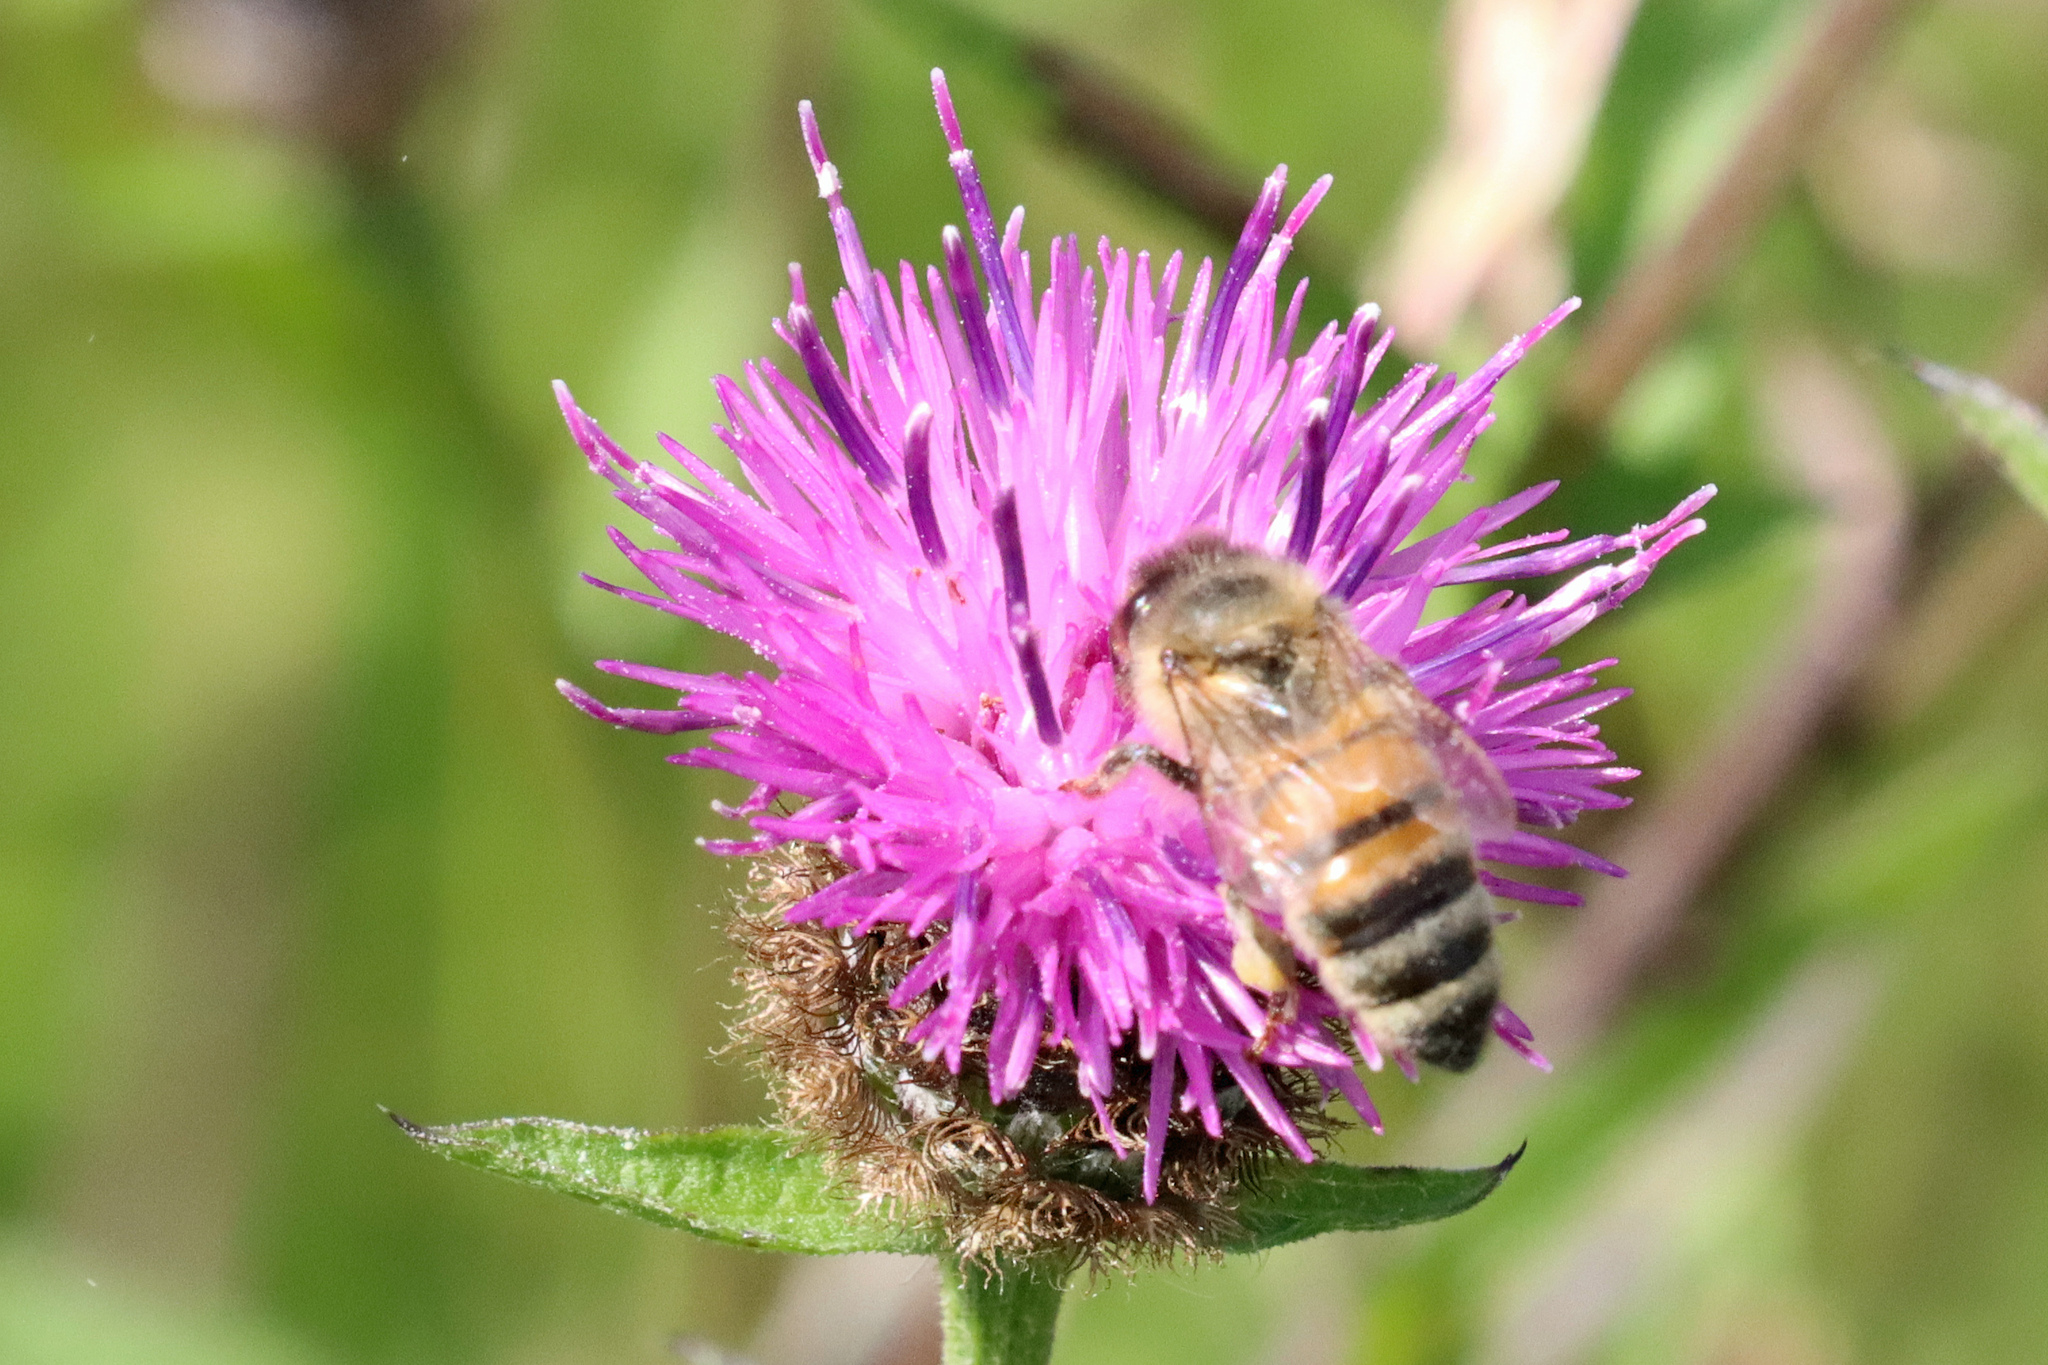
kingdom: Animalia
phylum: Arthropoda
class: Insecta
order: Hymenoptera
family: Apidae
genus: Apis
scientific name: Apis mellifera
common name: Honey bee
